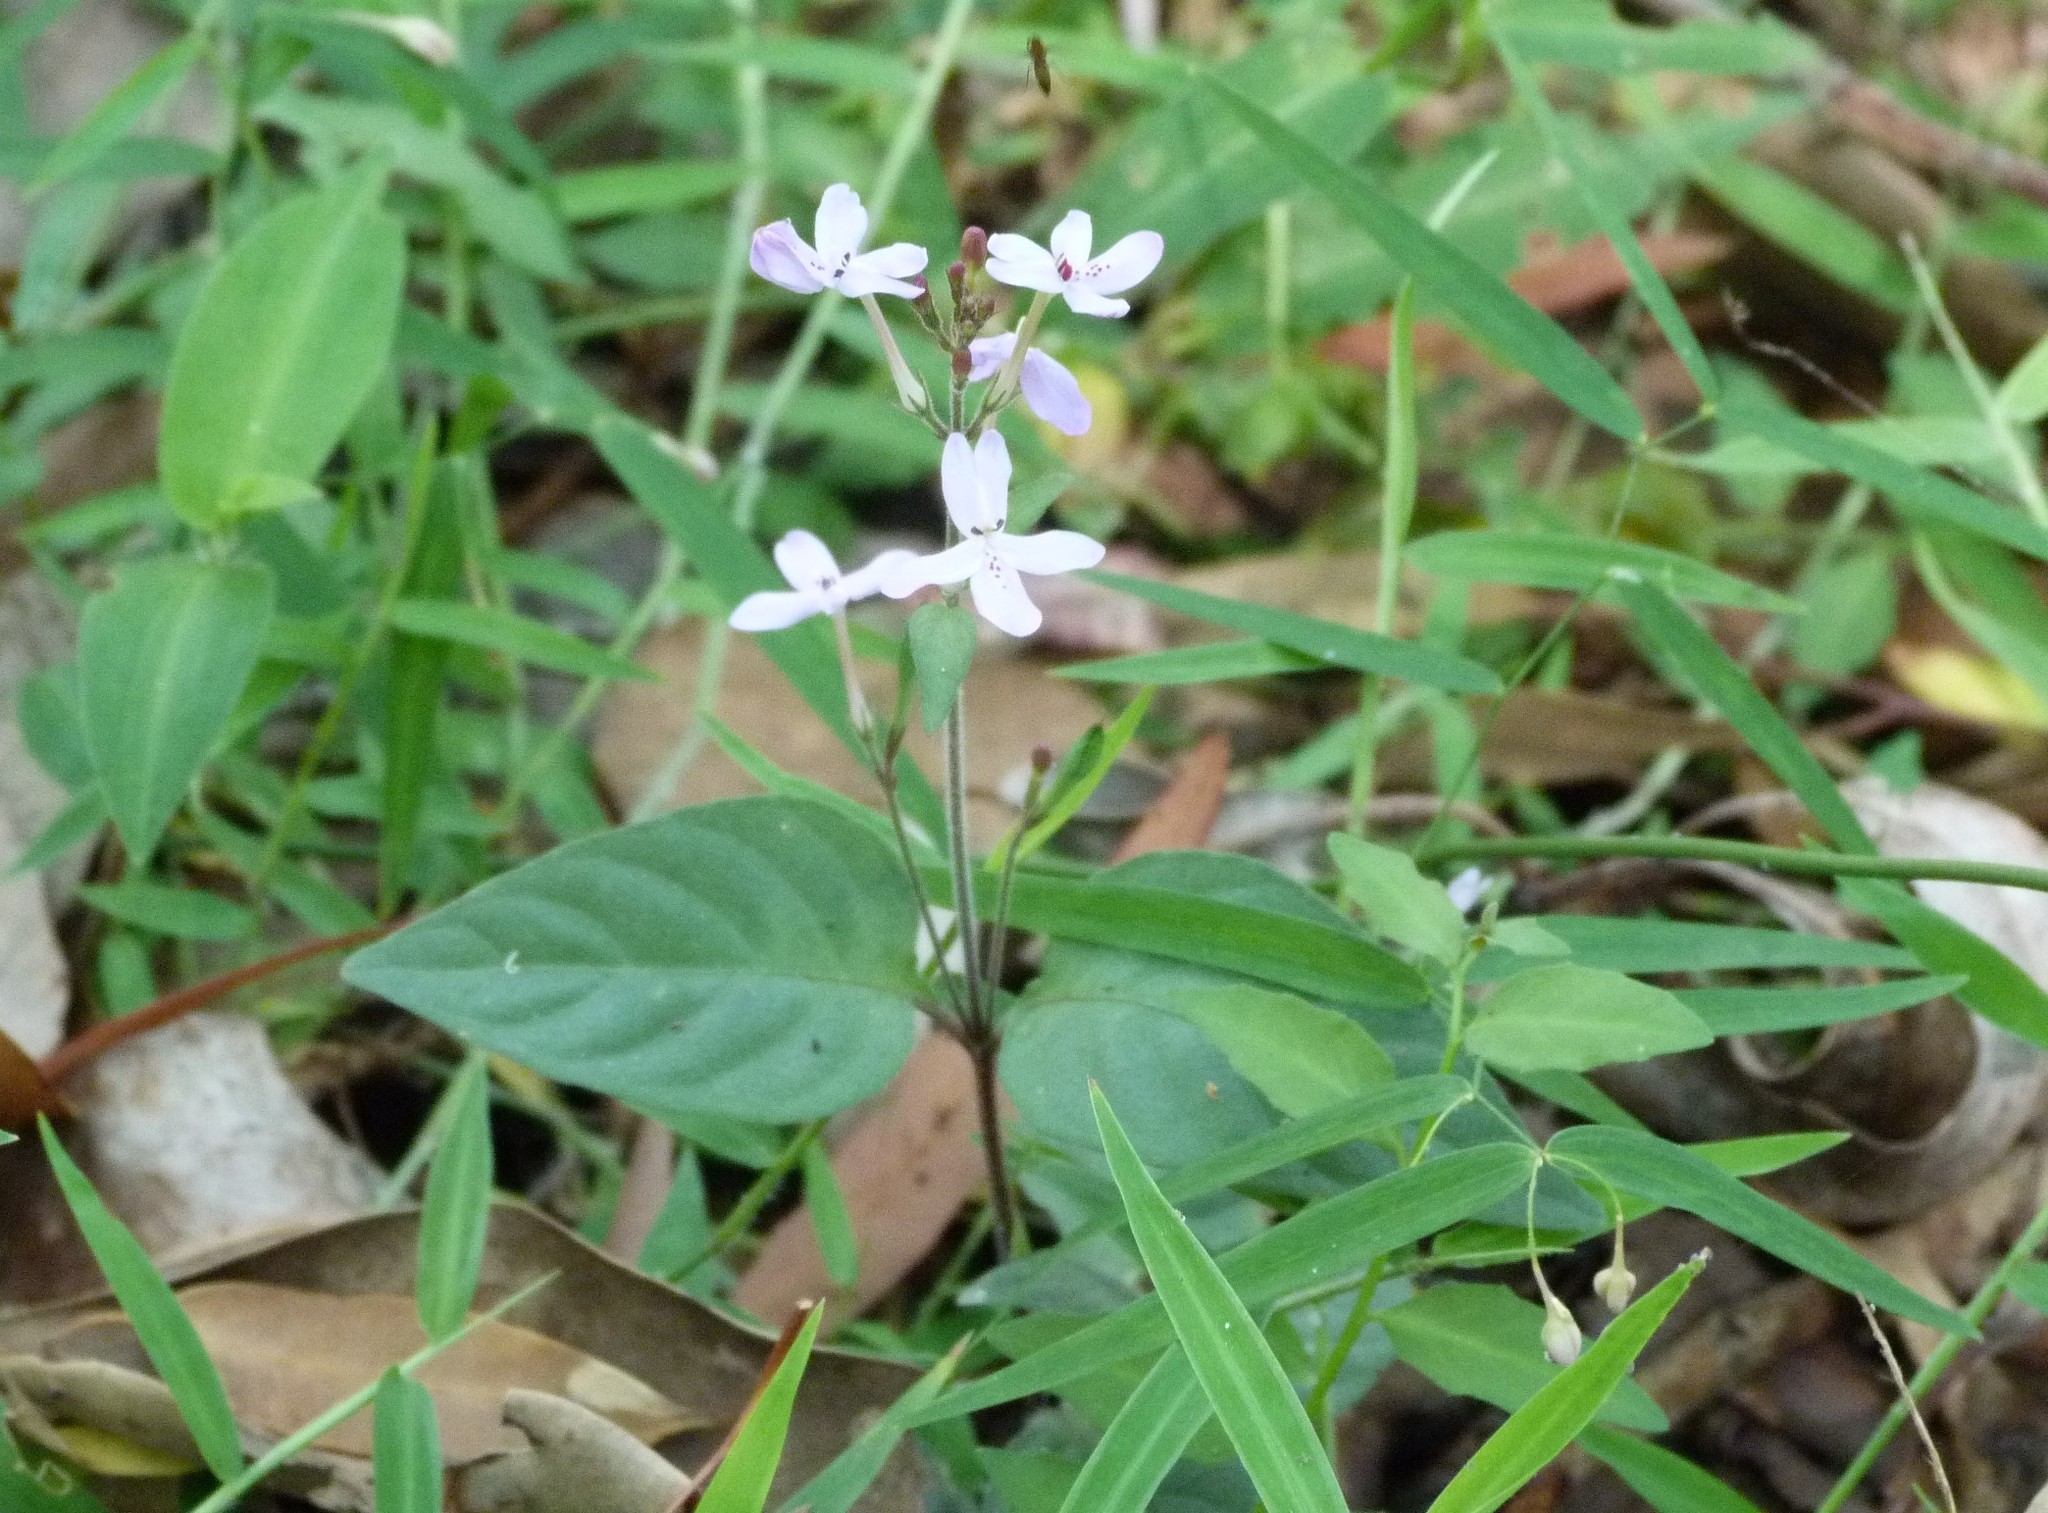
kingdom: Plantae
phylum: Tracheophyta
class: Magnoliopsida
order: Lamiales
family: Acanthaceae
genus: Pseuderanthemum
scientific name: Pseuderanthemum variabile
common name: Night and afternoon
